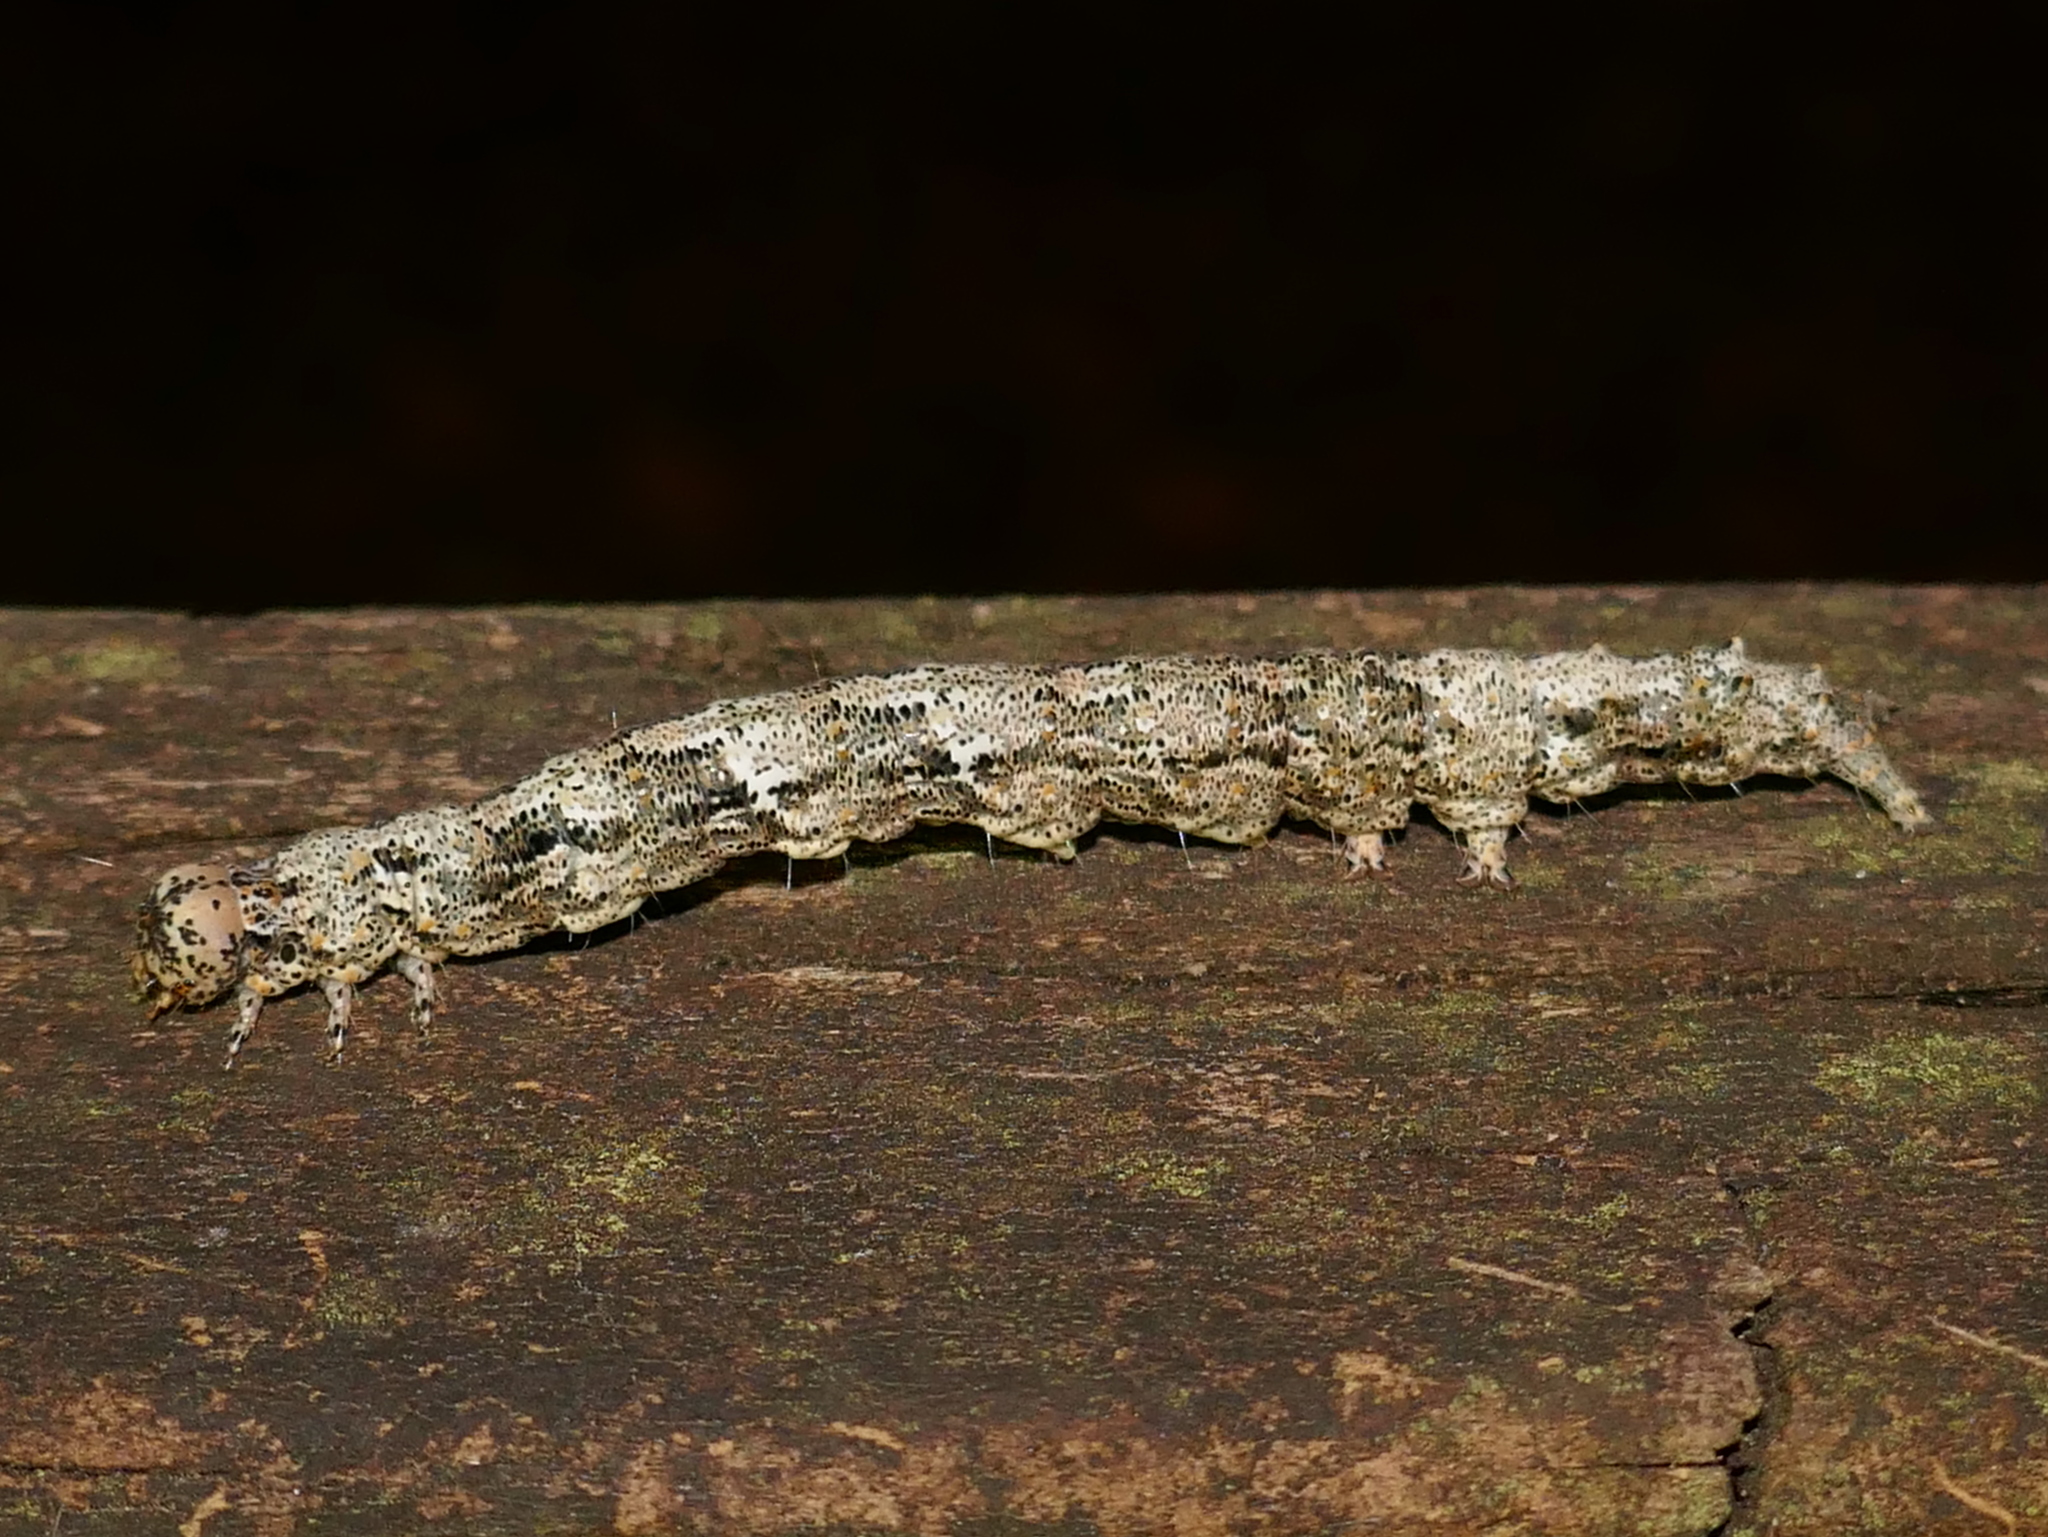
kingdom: Animalia
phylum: Arthropoda
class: Insecta
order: Lepidoptera
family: Erebidae
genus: Metria
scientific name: Metria amella
